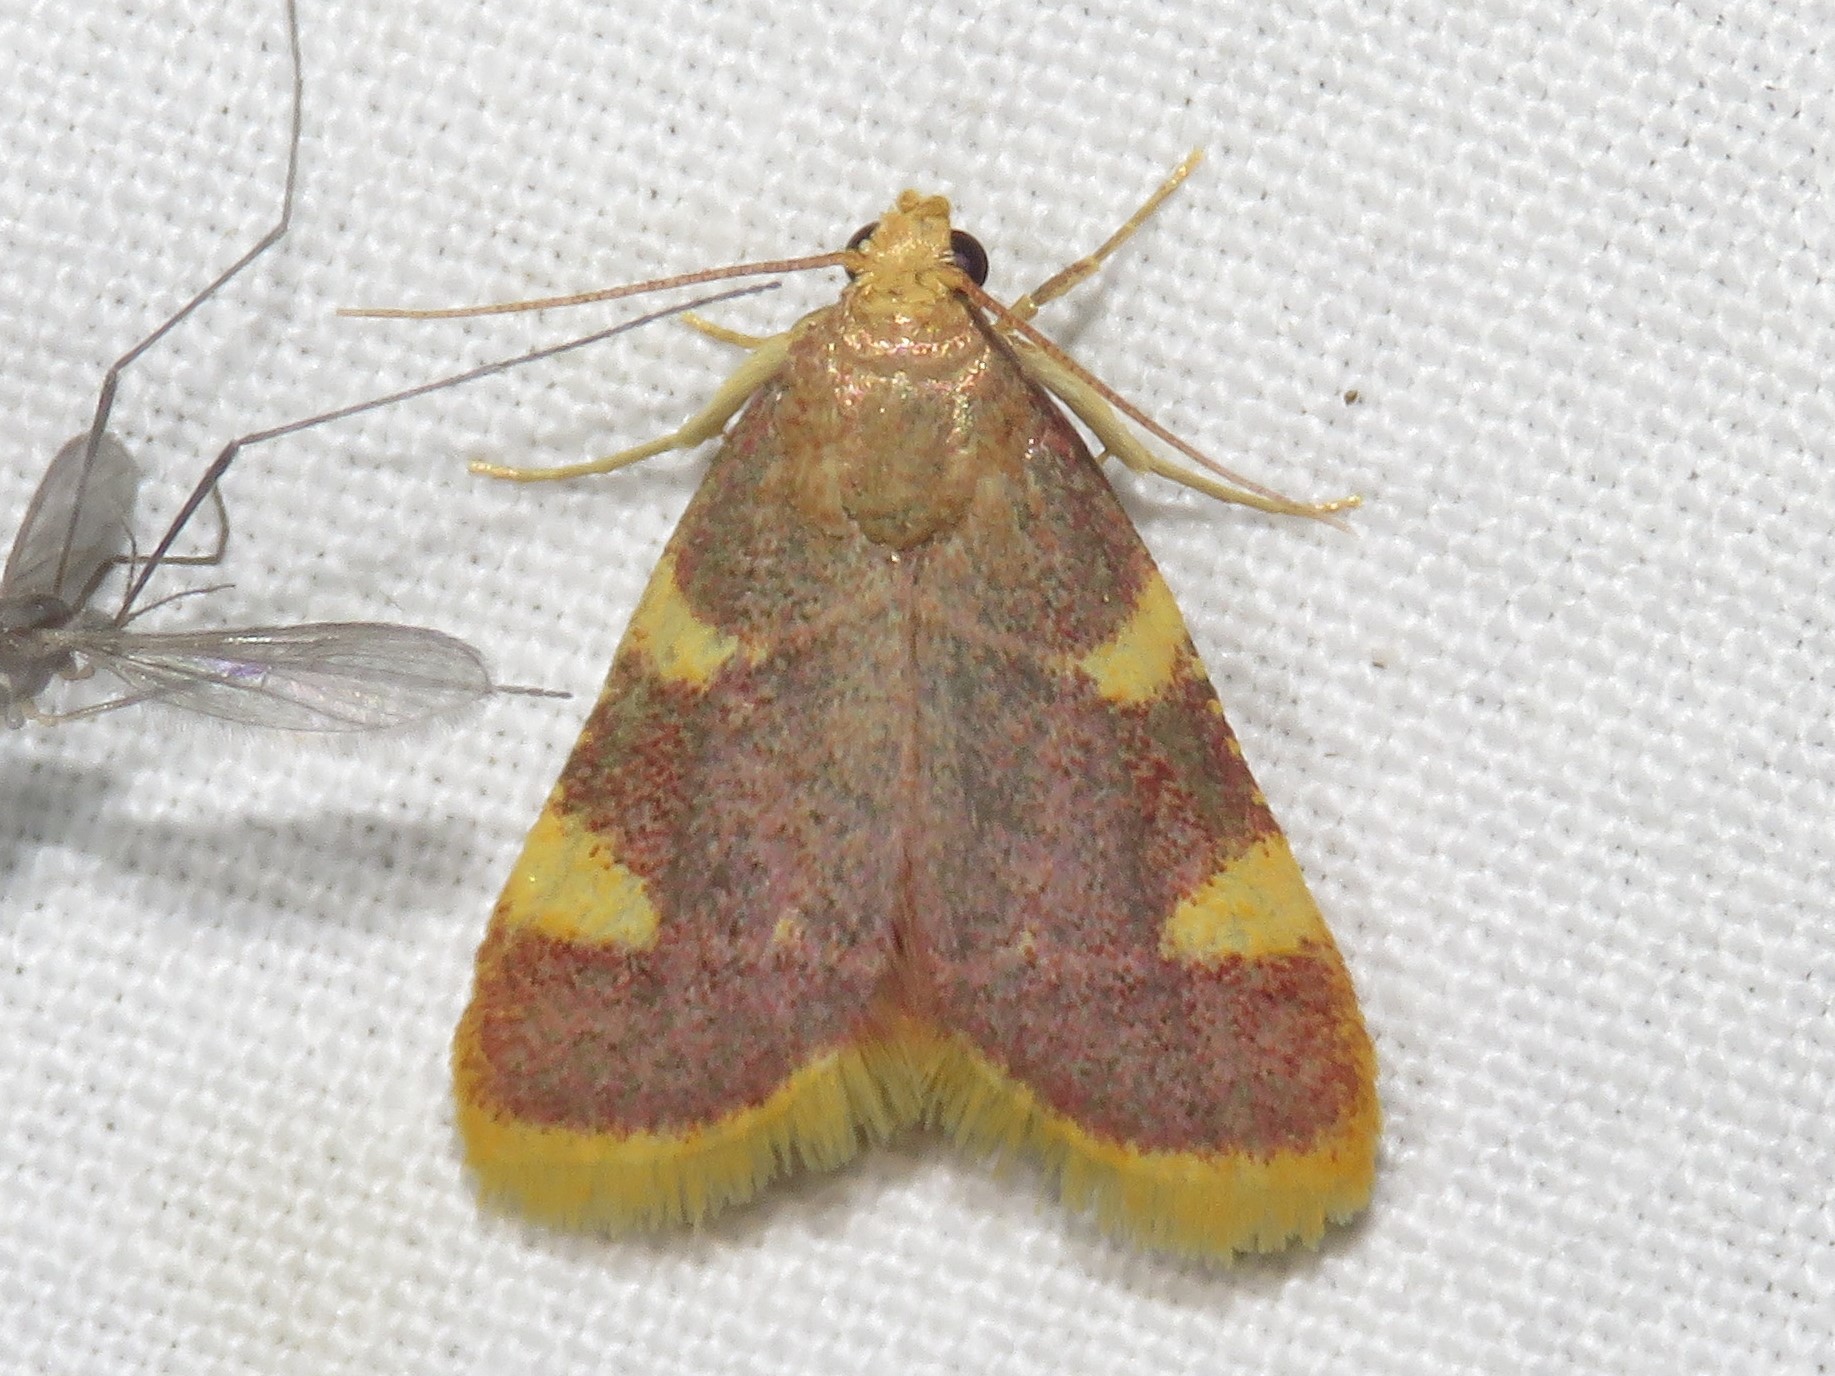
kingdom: Animalia
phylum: Arthropoda
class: Insecta
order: Lepidoptera
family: Pyralidae
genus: Hypsopygia
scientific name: Hypsopygia costalis
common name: Gold triangle
